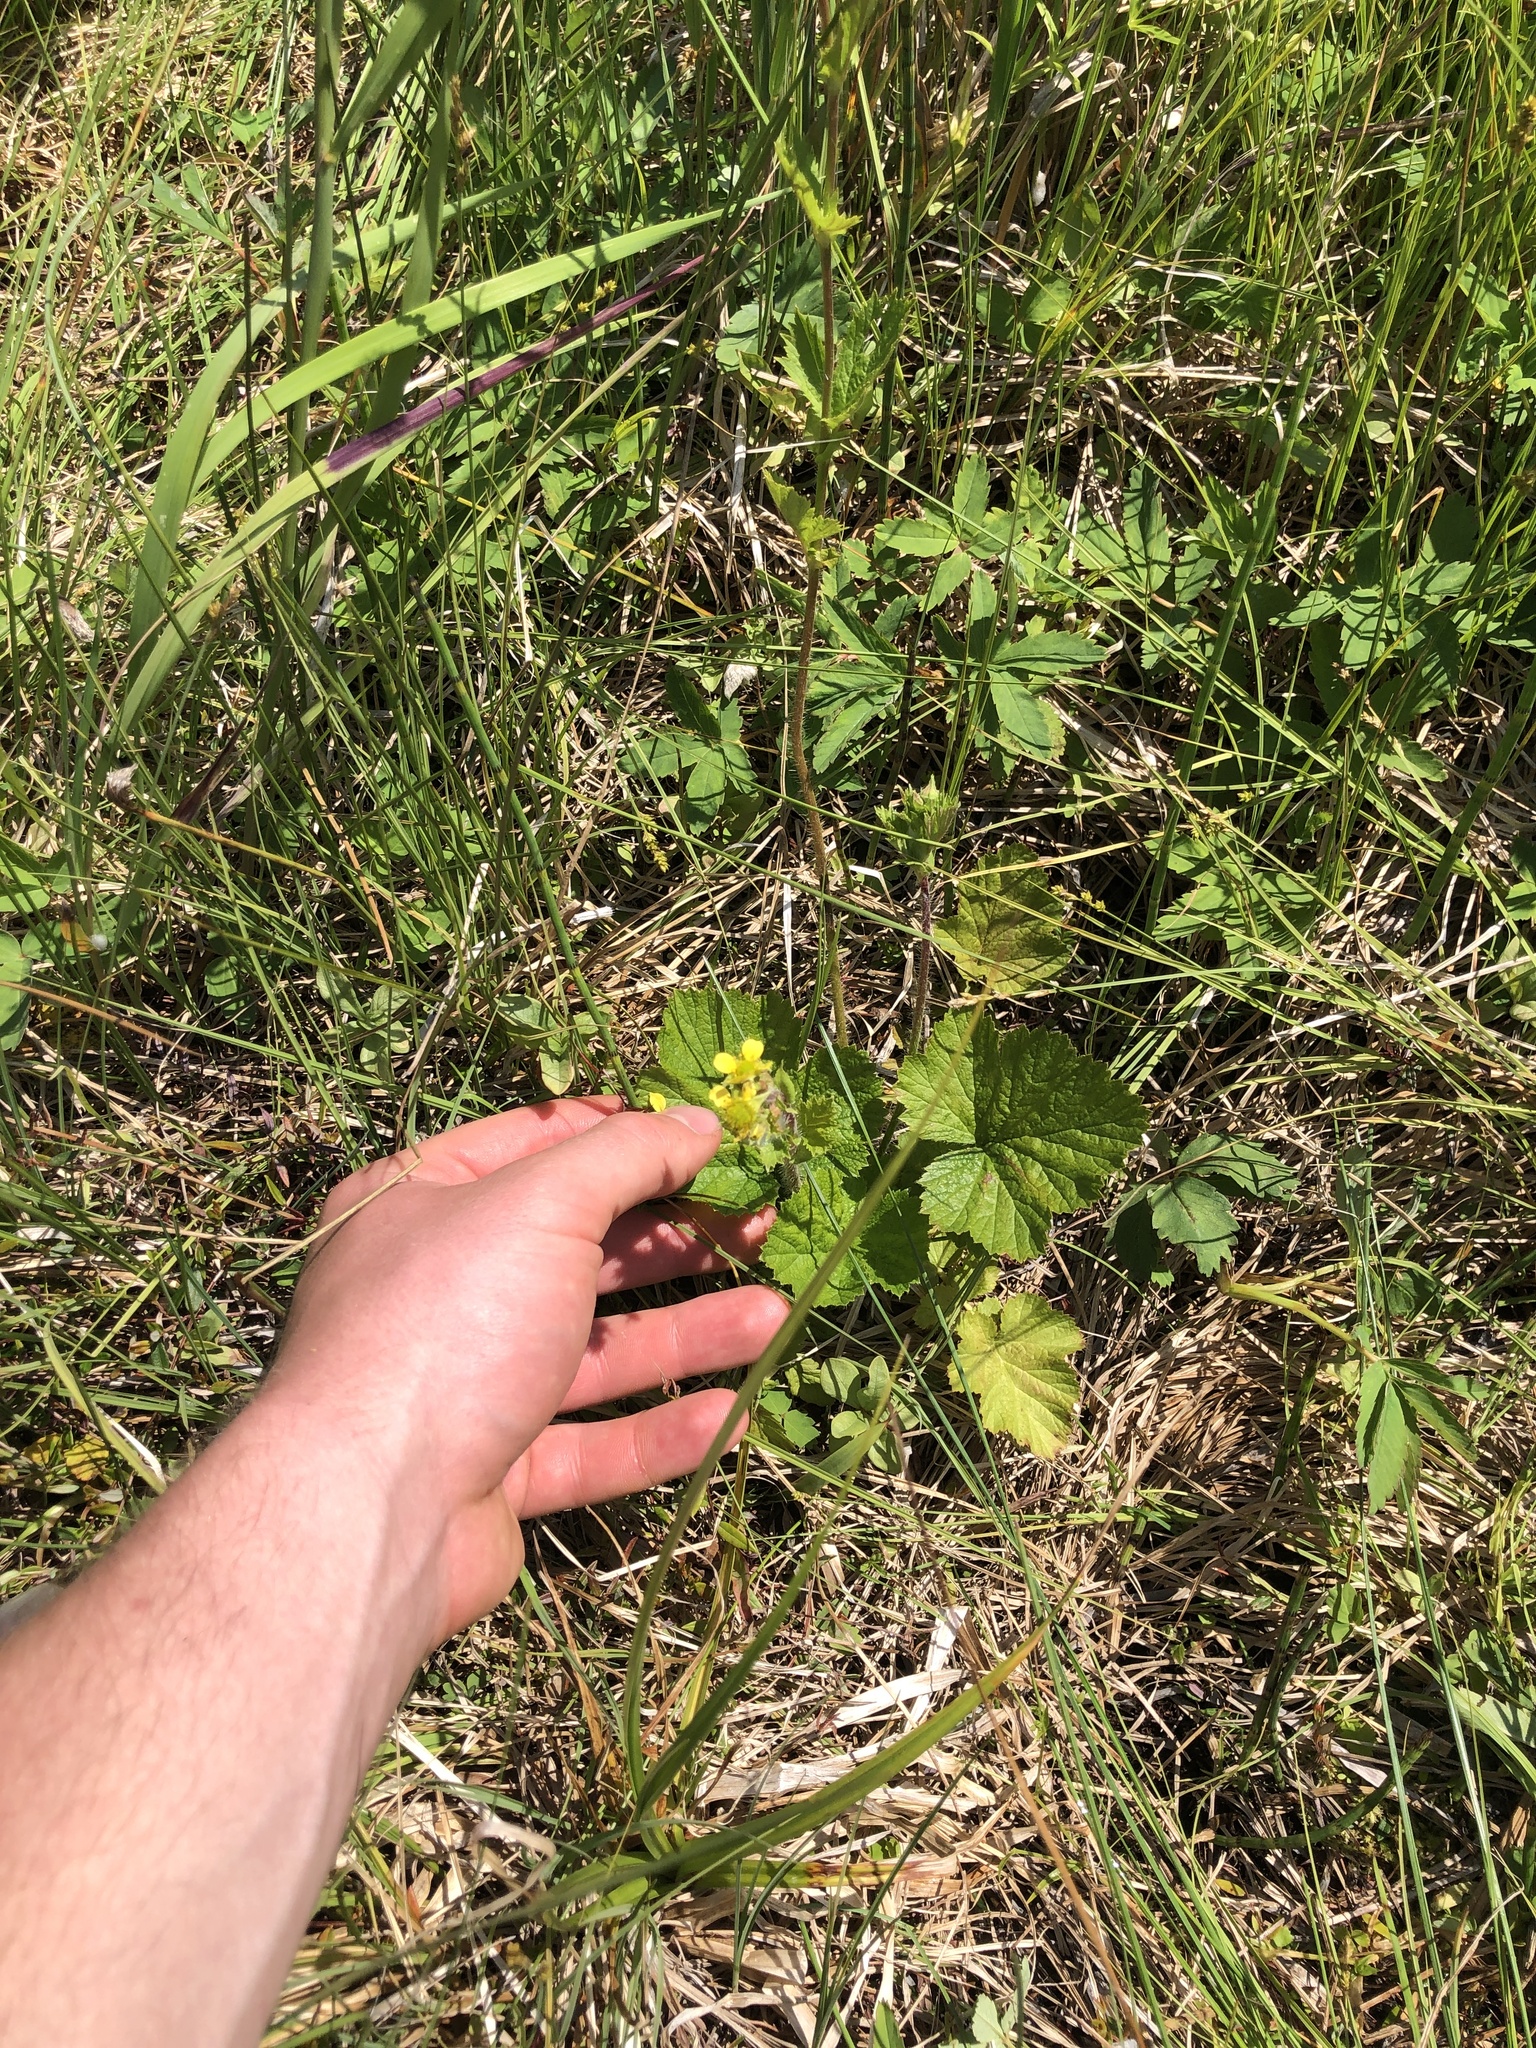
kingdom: Plantae
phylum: Tracheophyta
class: Magnoliopsida
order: Rosales
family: Rosaceae
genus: Geum
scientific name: Geum macrophyllum
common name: Large-leaved avens
